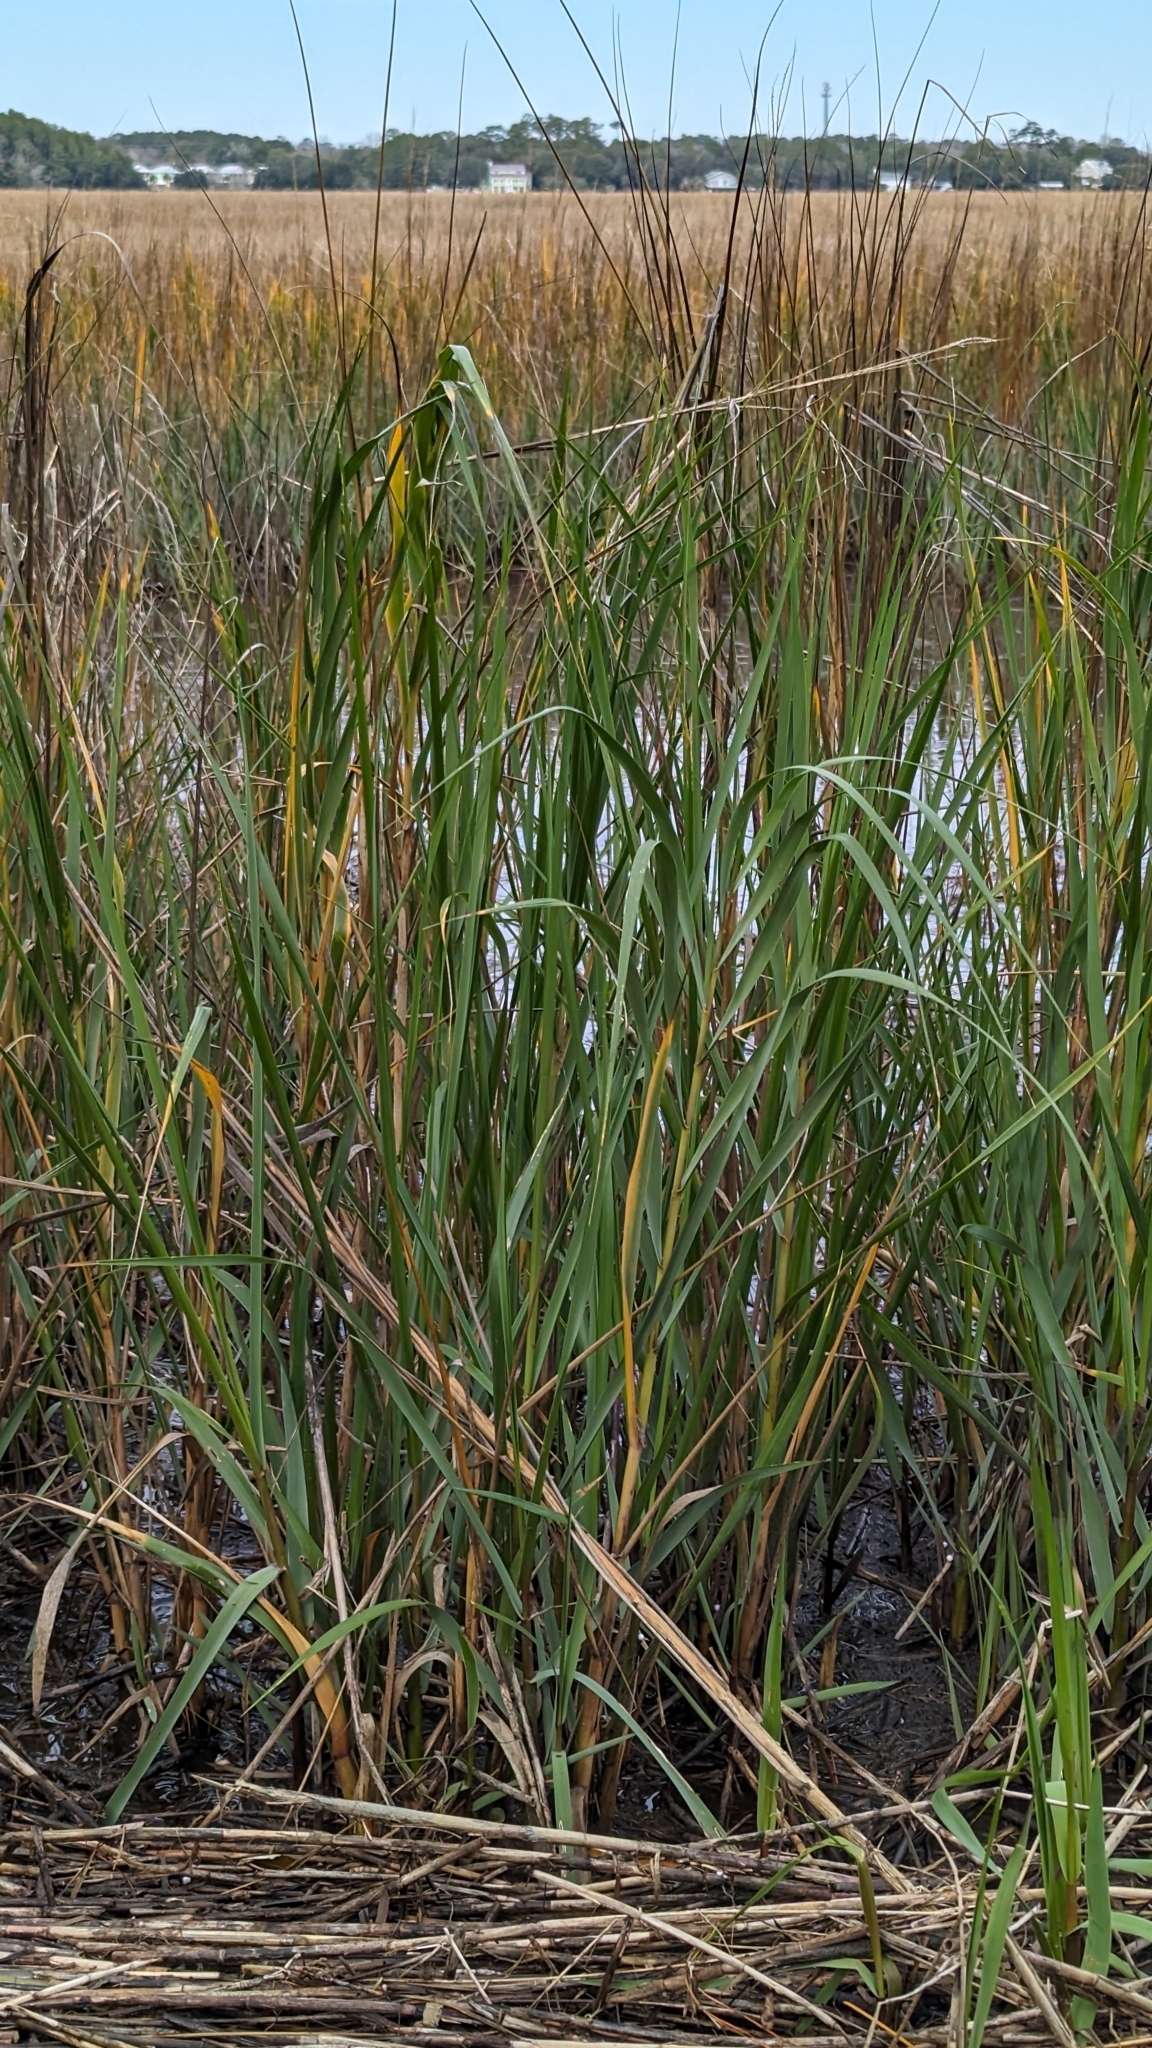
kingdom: Plantae
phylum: Tracheophyta
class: Liliopsida
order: Poales
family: Poaceae
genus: Sporobolus
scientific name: Sporobolus alterniflorus
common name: Atlantic cordgrass
